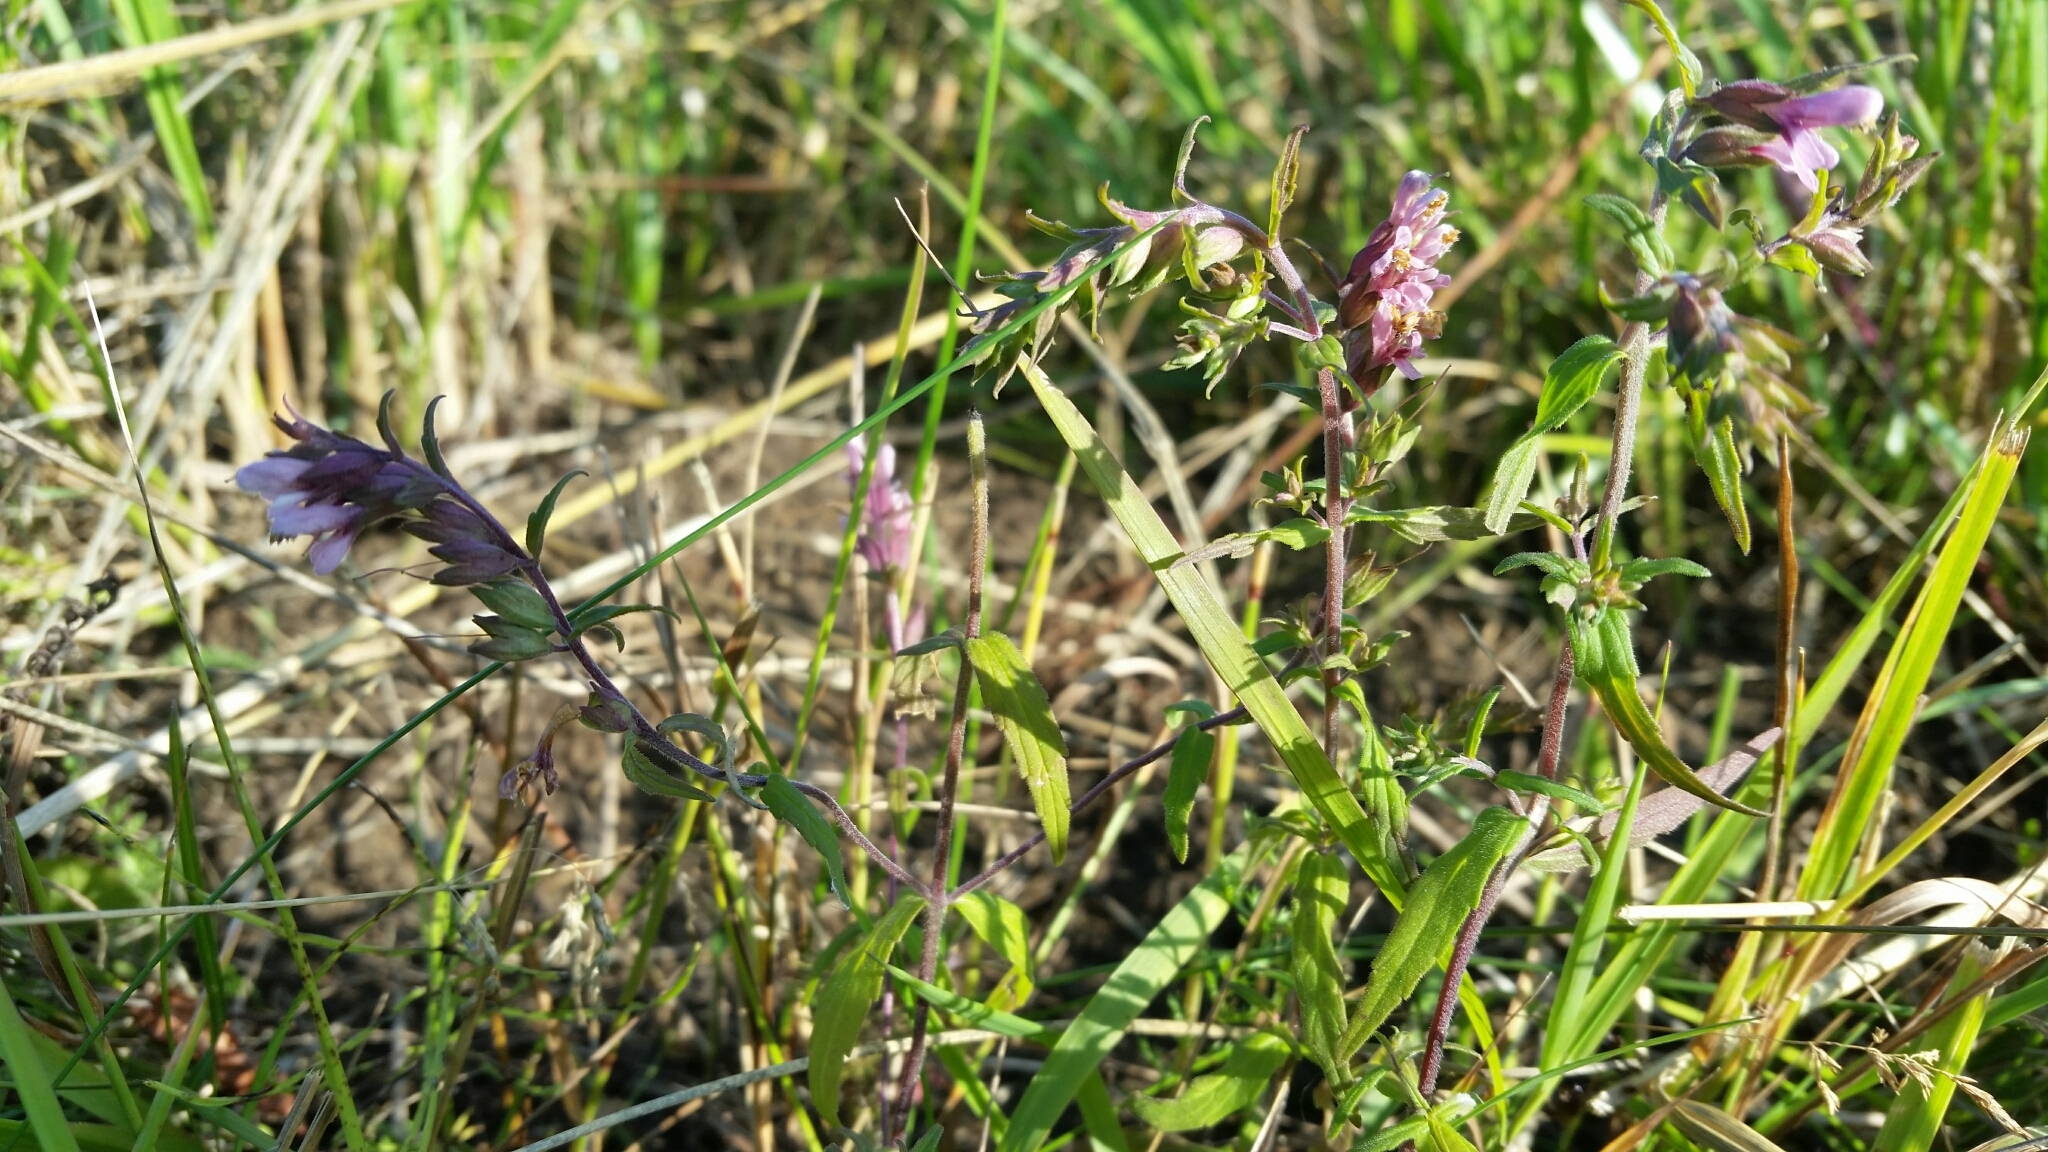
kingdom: Plantae
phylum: Tracheophyta
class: Magnoliopsida
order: Lamiales
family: Orobanchaceae
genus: Odontites
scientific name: Odontites vulgaris
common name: Broomrape
